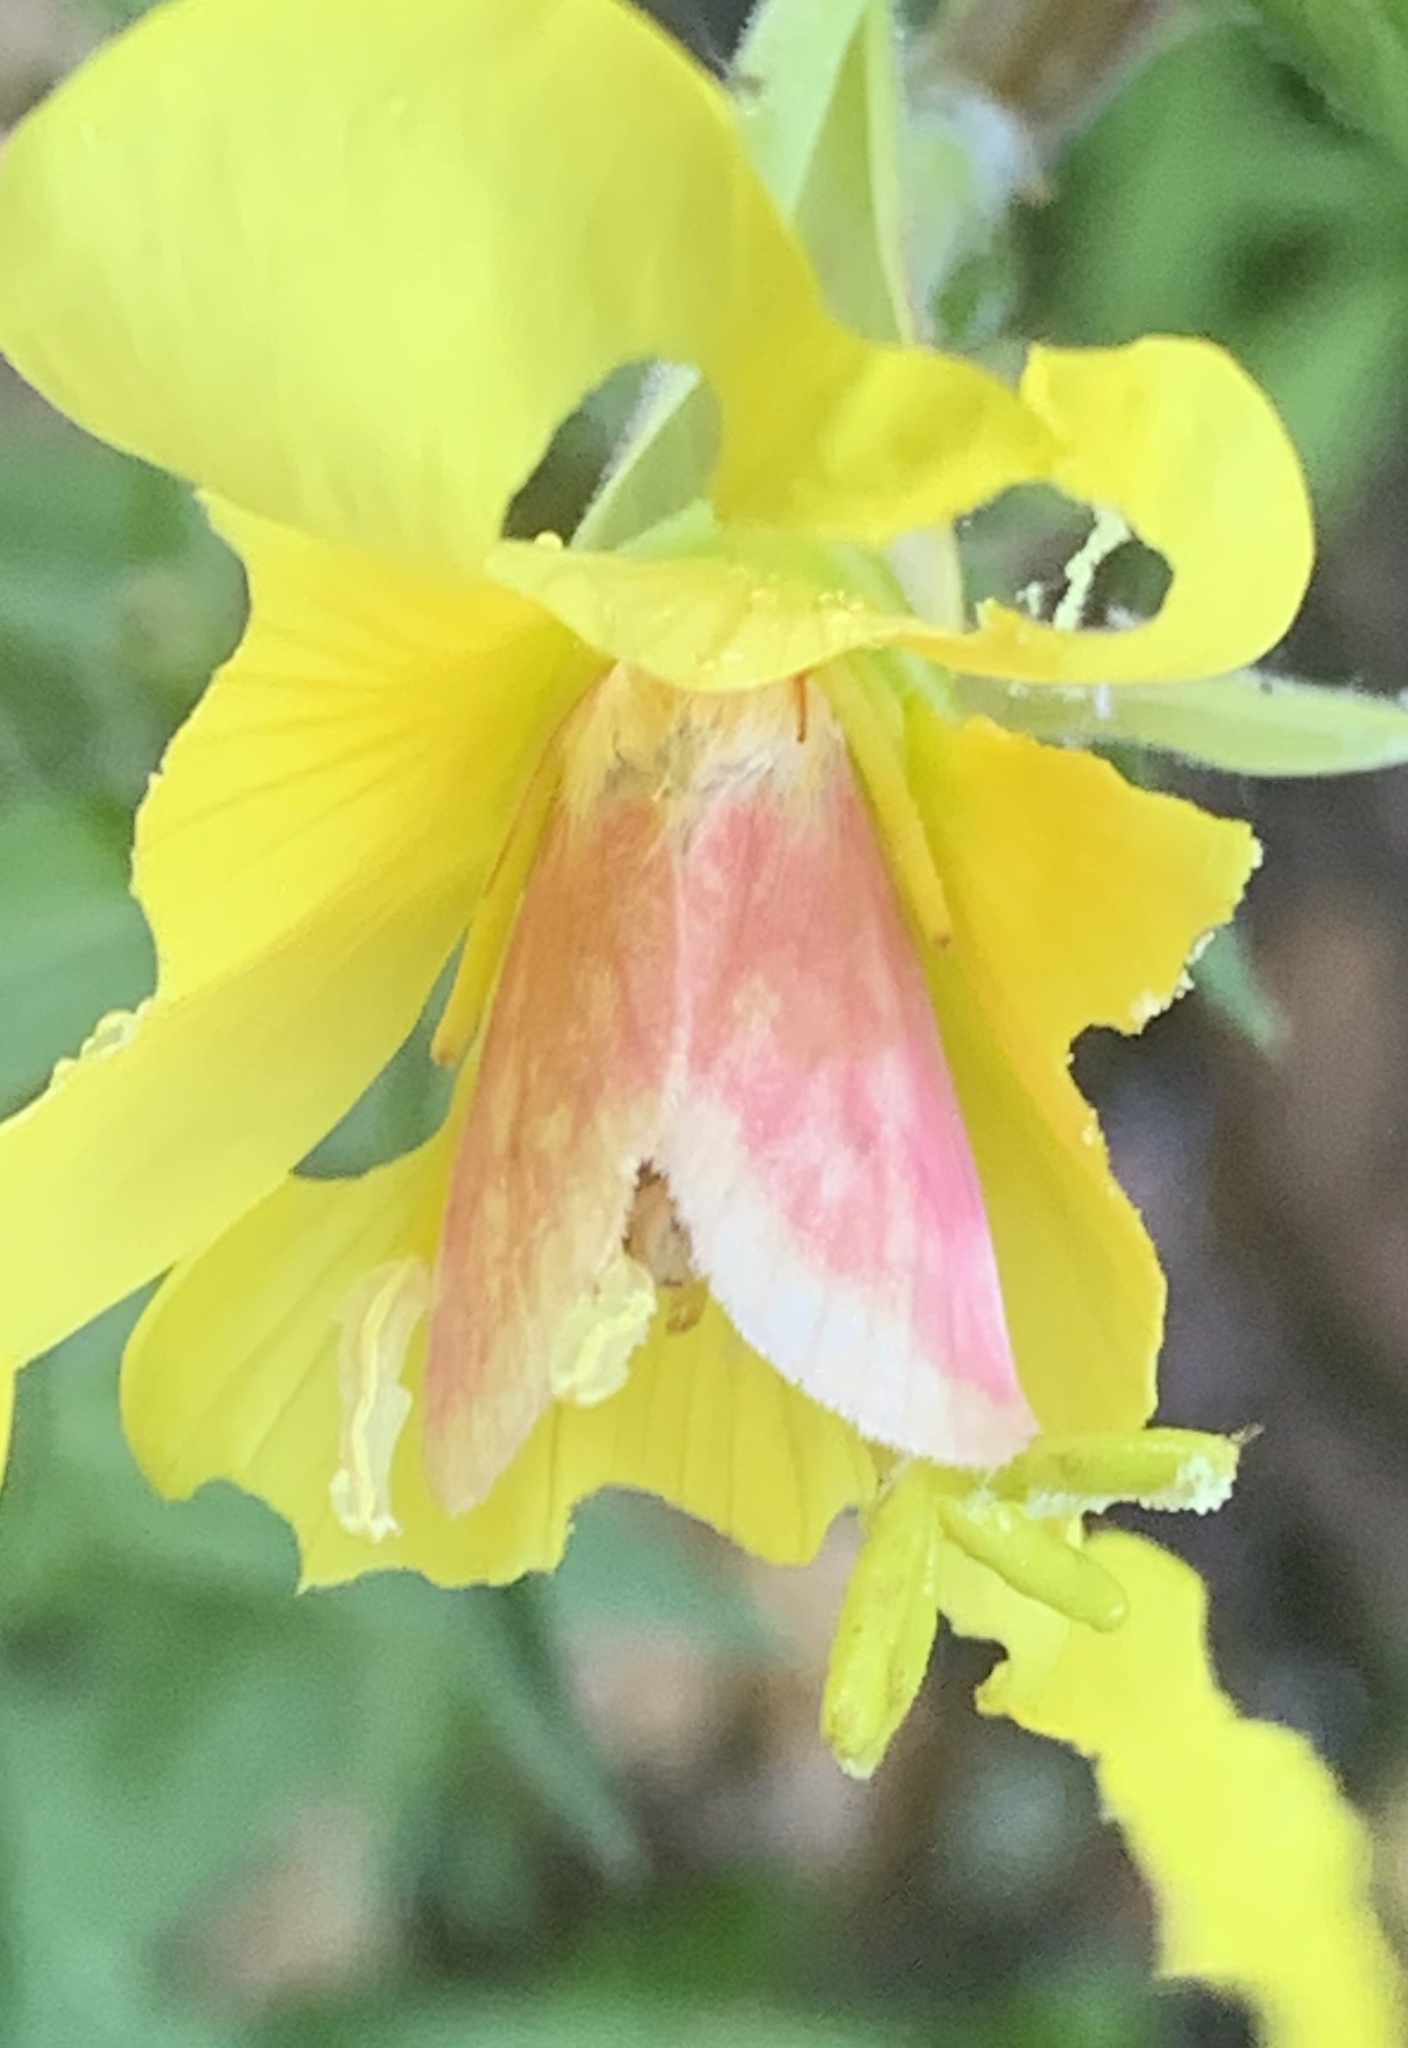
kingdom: Animalia
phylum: Arthropoda
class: Insecta
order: Lepidoptera
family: Noctuidae
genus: Schinia
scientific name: Schinia florida
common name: Primrose moth
